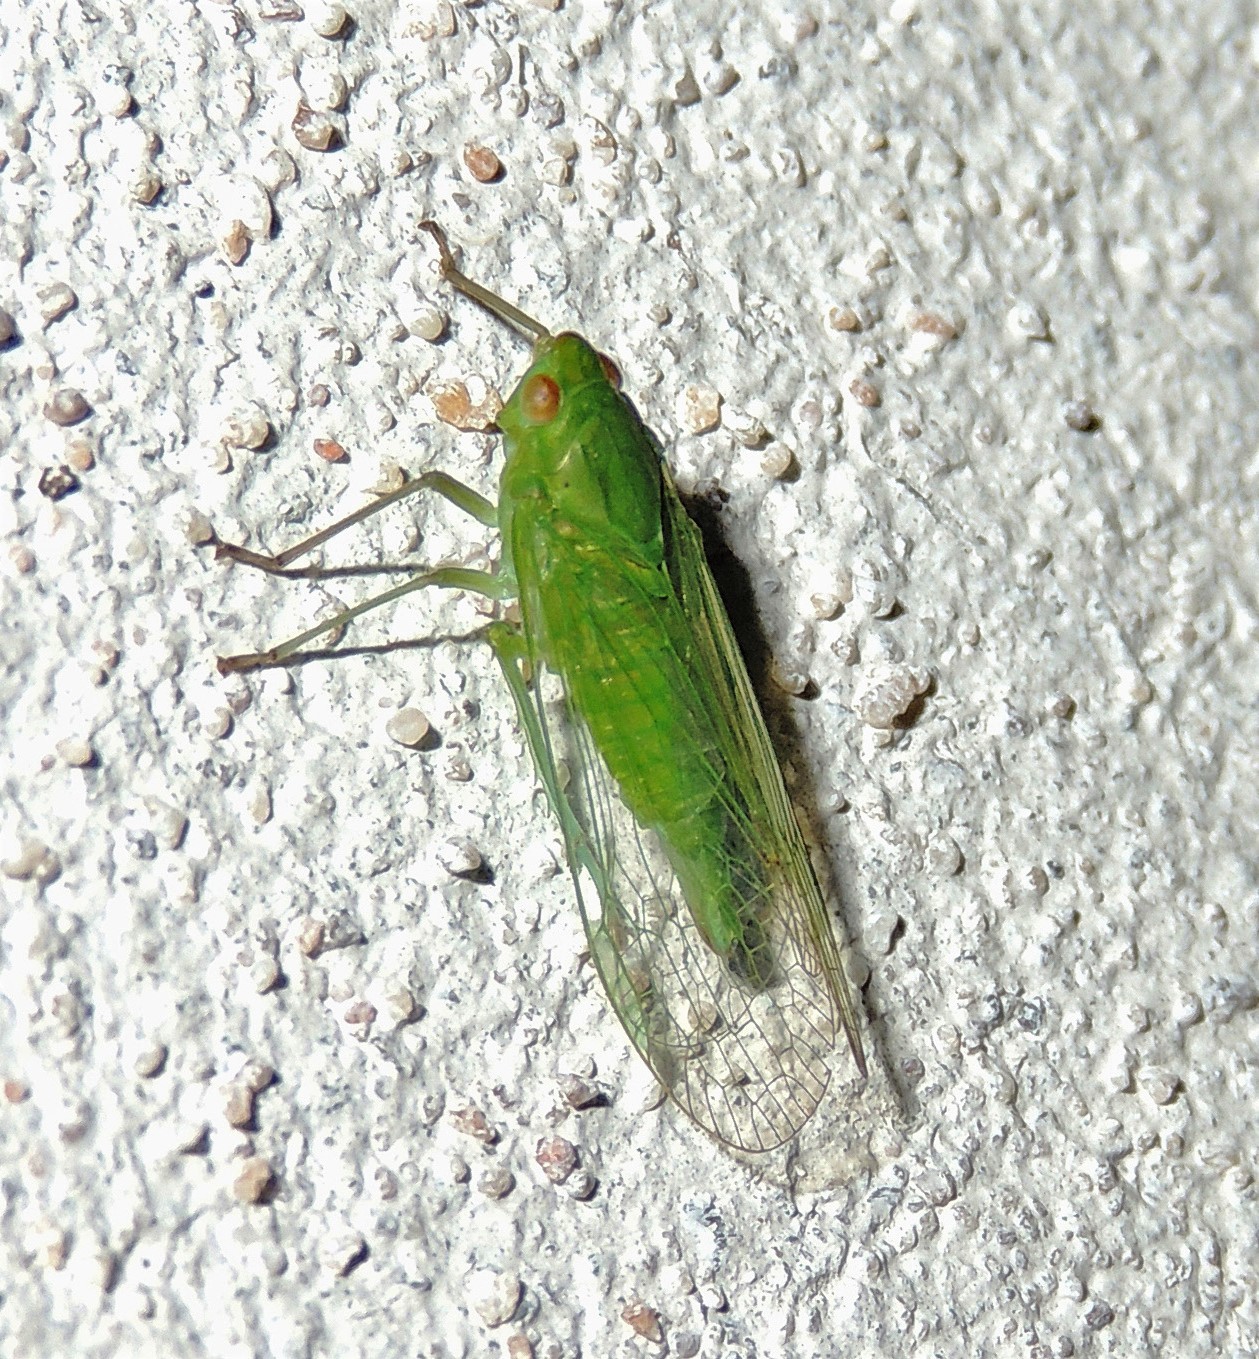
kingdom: Animalia
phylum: Arthropoda
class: Insecta
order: Hemiptera
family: Aphididae
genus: Cuernavaca
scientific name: Cuernavaca inexacta
